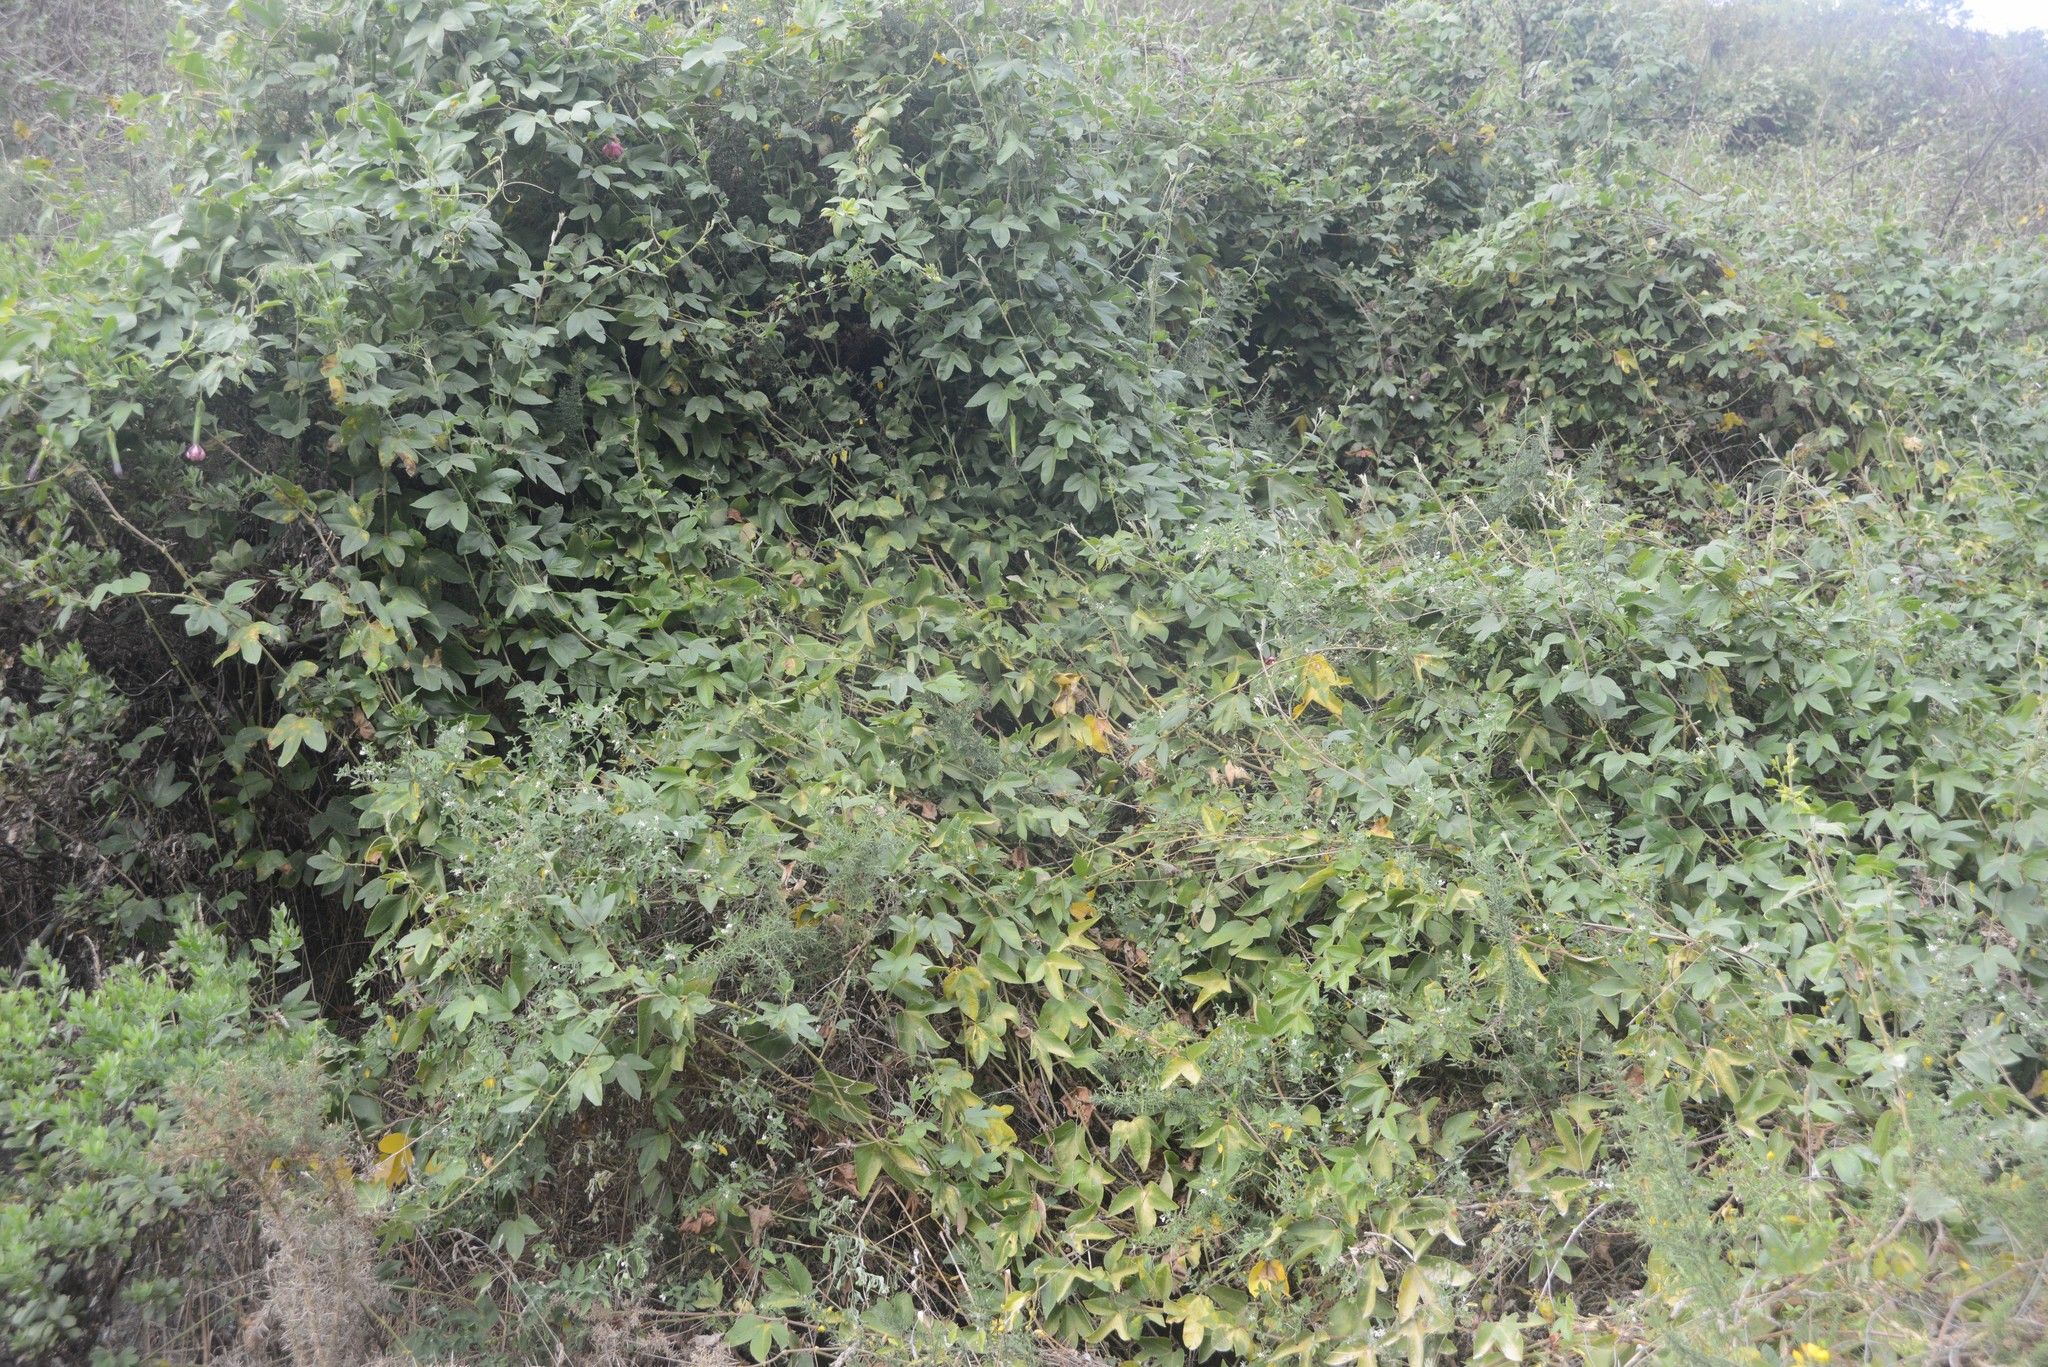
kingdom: Plantae
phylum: Tracheophyta
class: Magnoliopsida
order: Malpighiales
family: Passifloraceae
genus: Passiflora
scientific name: Passiflora tripartita
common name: Banana poka
